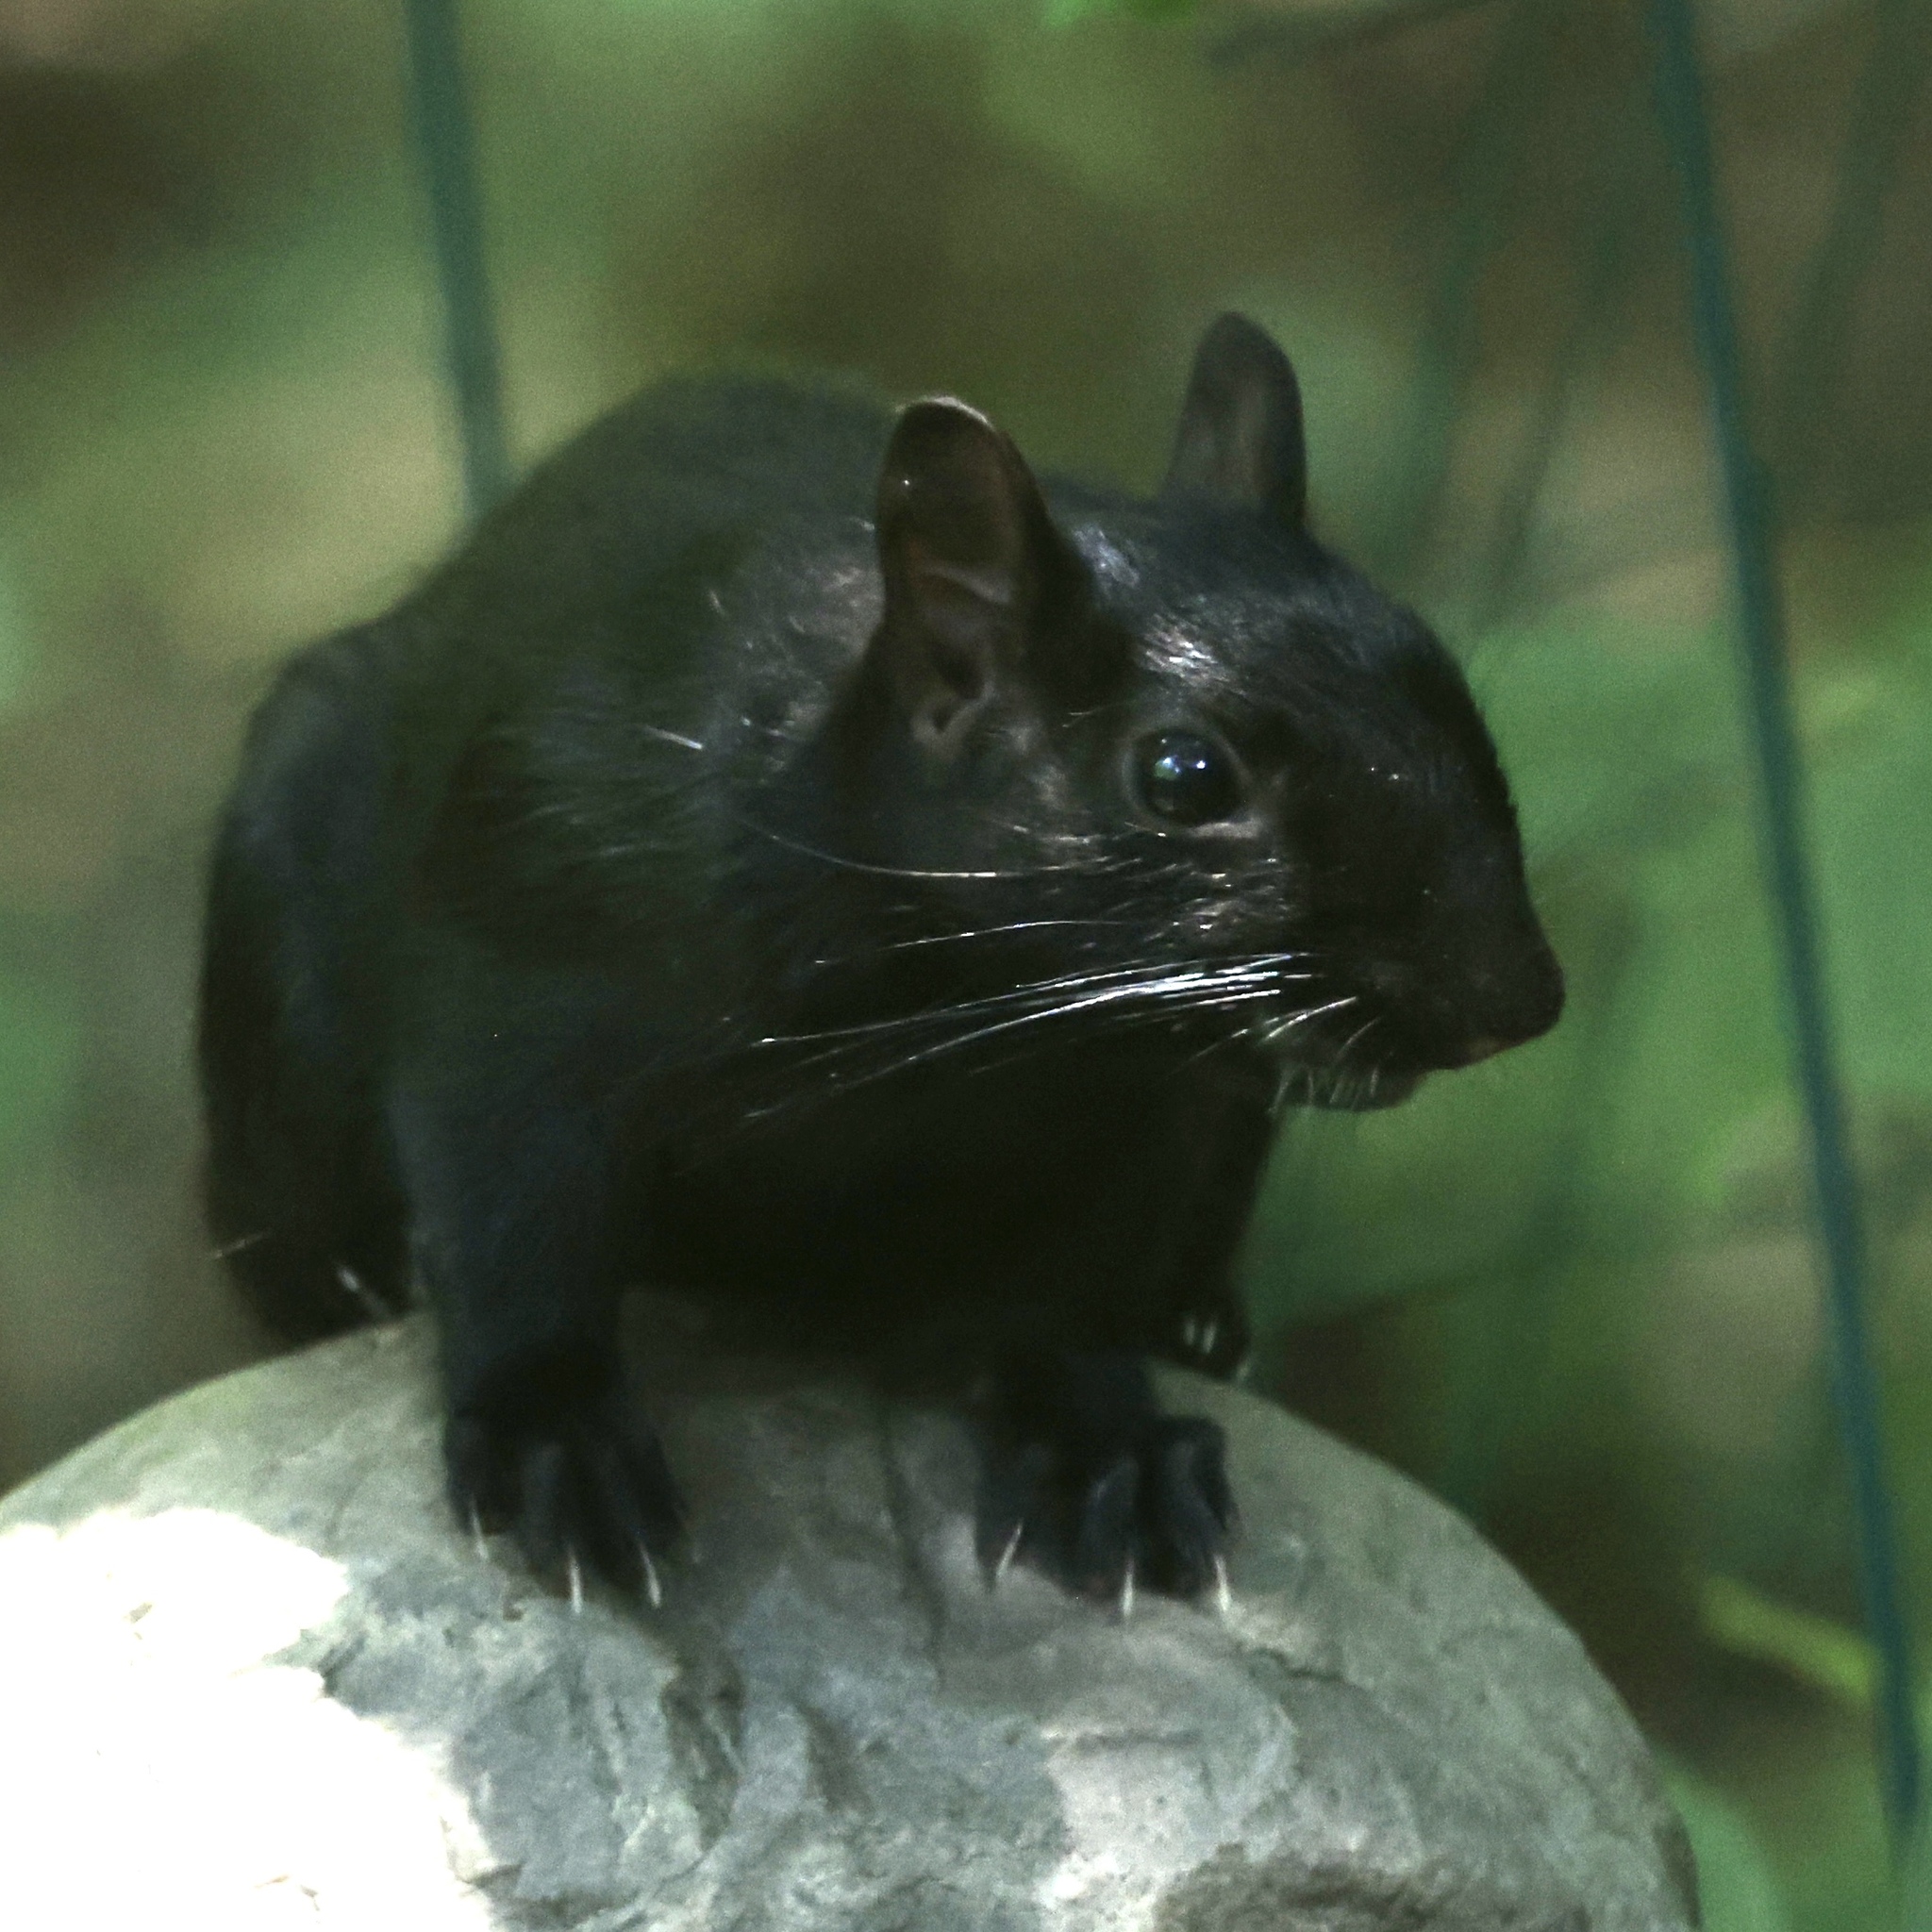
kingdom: Animalia
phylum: Chordata
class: Mammalia
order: Rodentia
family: Sciuridae
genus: Sciurus
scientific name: Sciurus carolinensis
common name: Eastern gray squirrel
